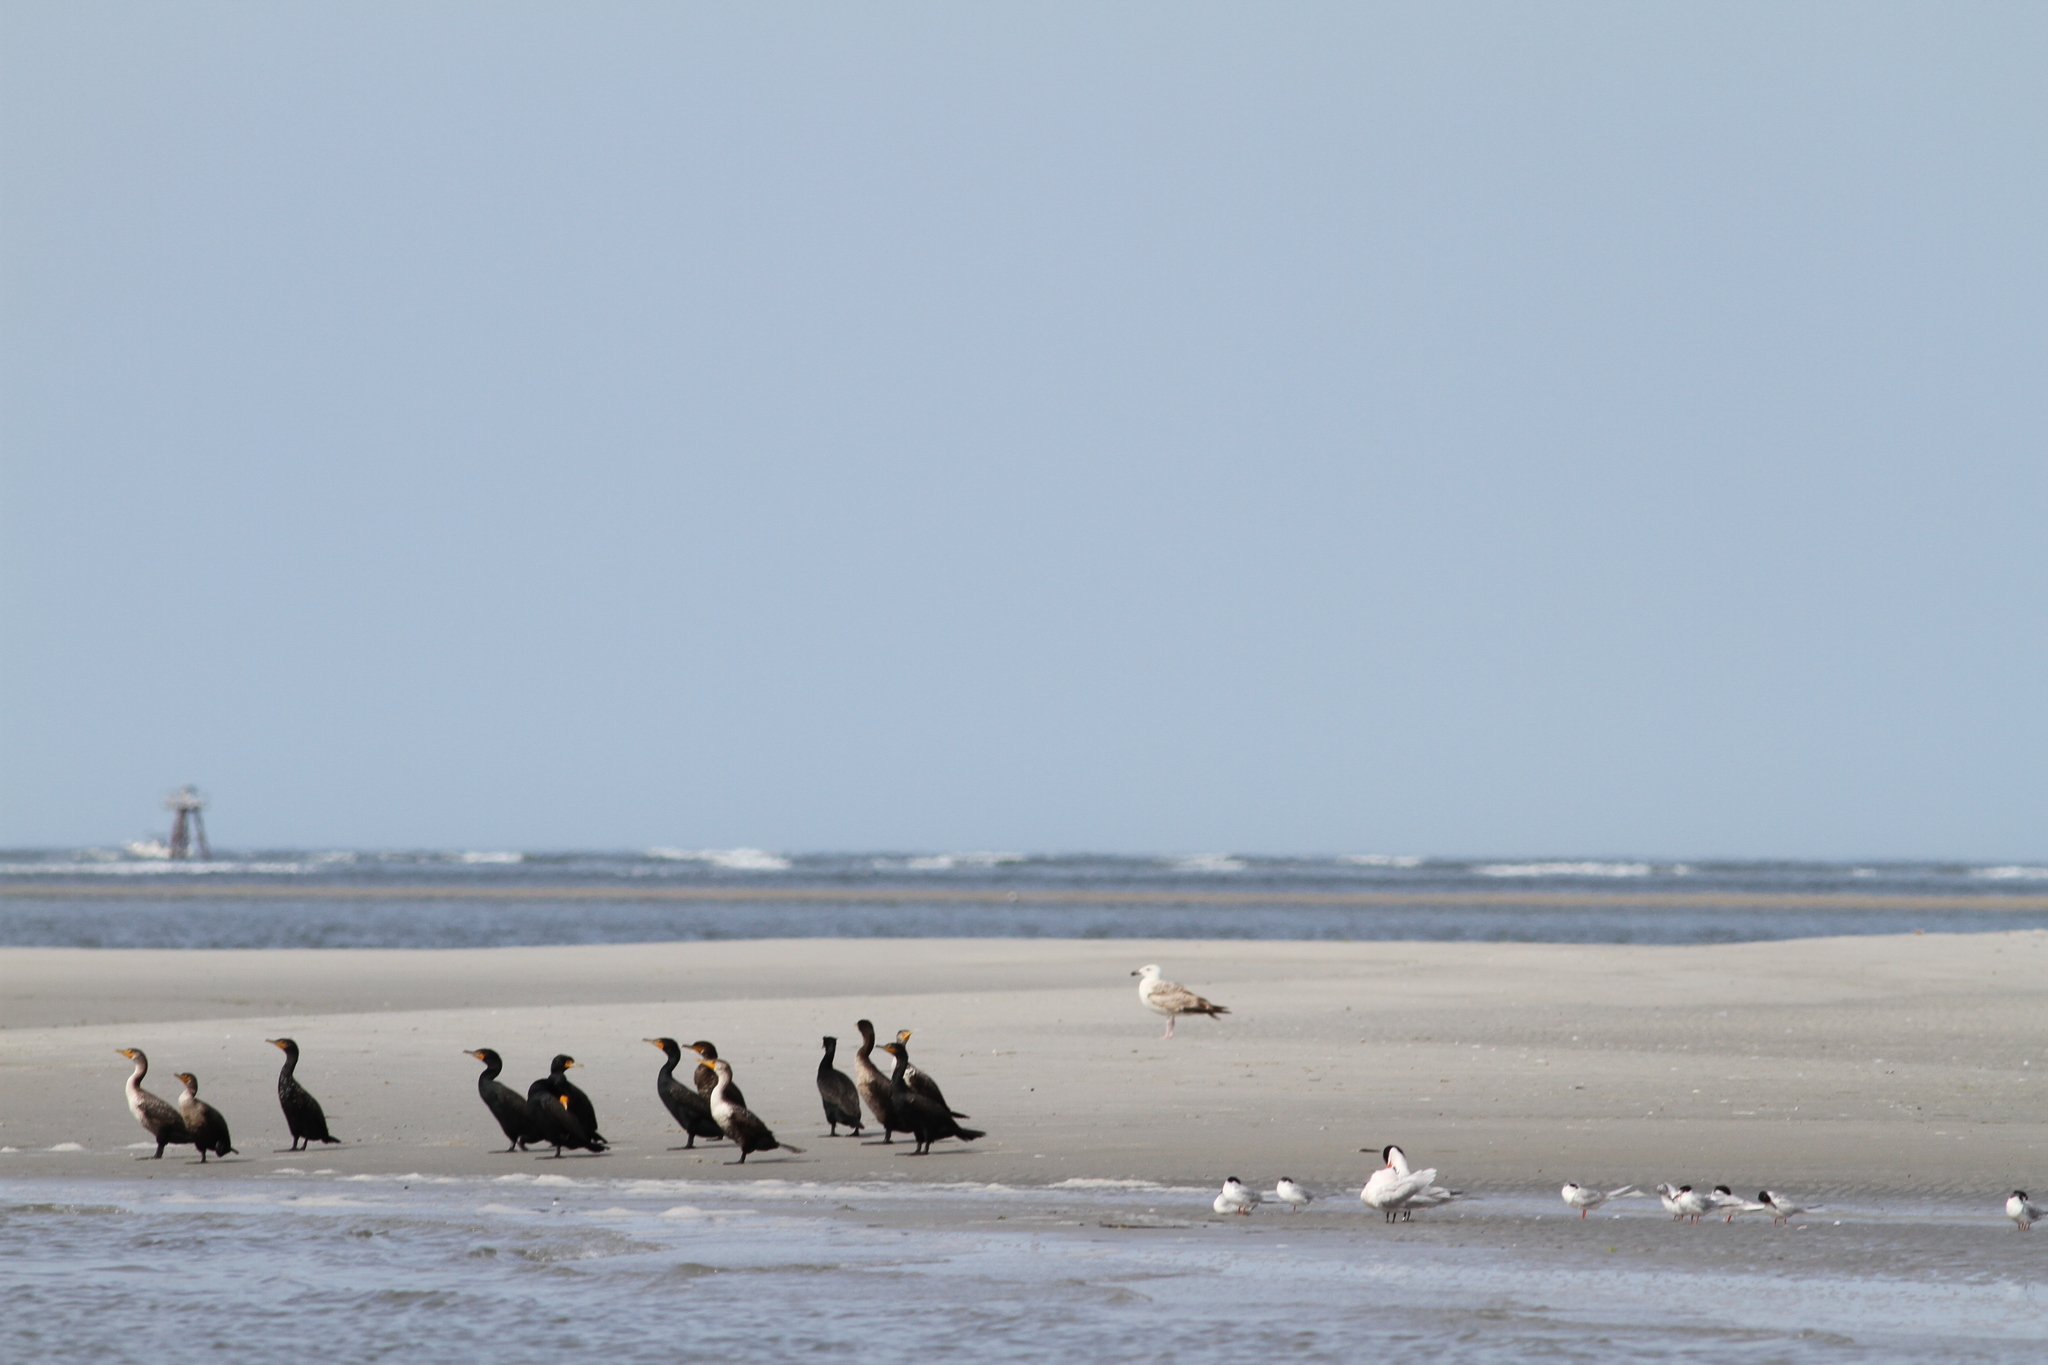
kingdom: Animalia
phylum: Chordata
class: Aves
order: Charadriiformes
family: Laridae
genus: Larus
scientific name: Larus marinus
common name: Great black-backed gull
